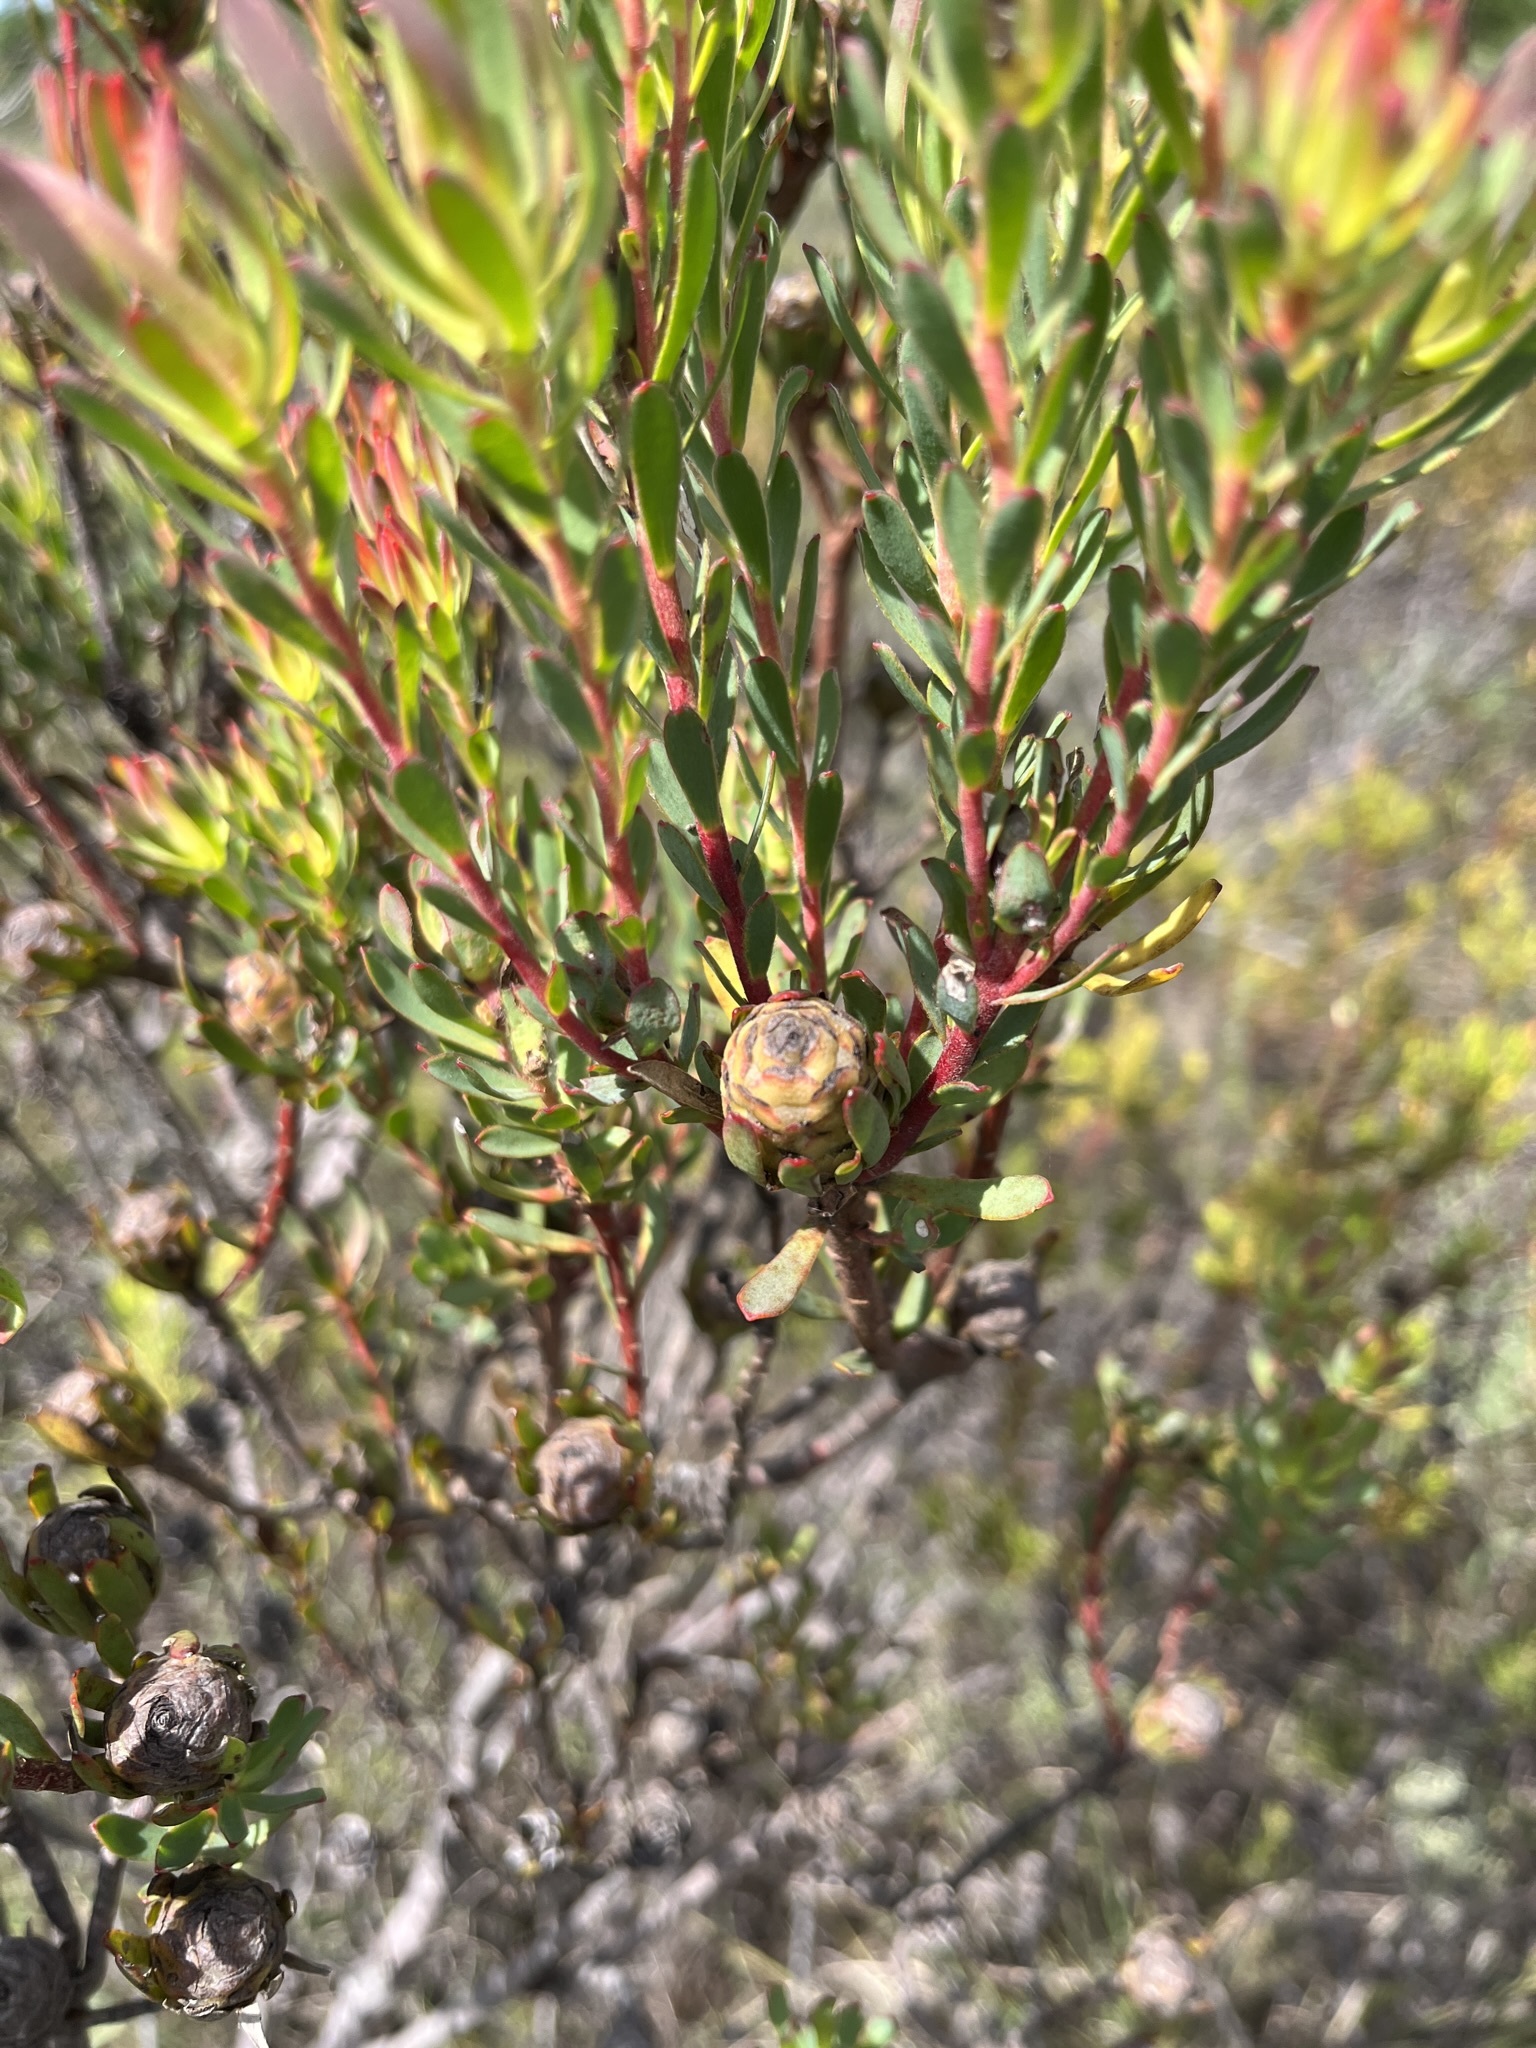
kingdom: Plantae
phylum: Tracheophyta
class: Magnoliopsida
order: Proteales
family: Proteaceae
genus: Leucadendron
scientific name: Leucadendron modestum
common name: Rough-leaf conebush
